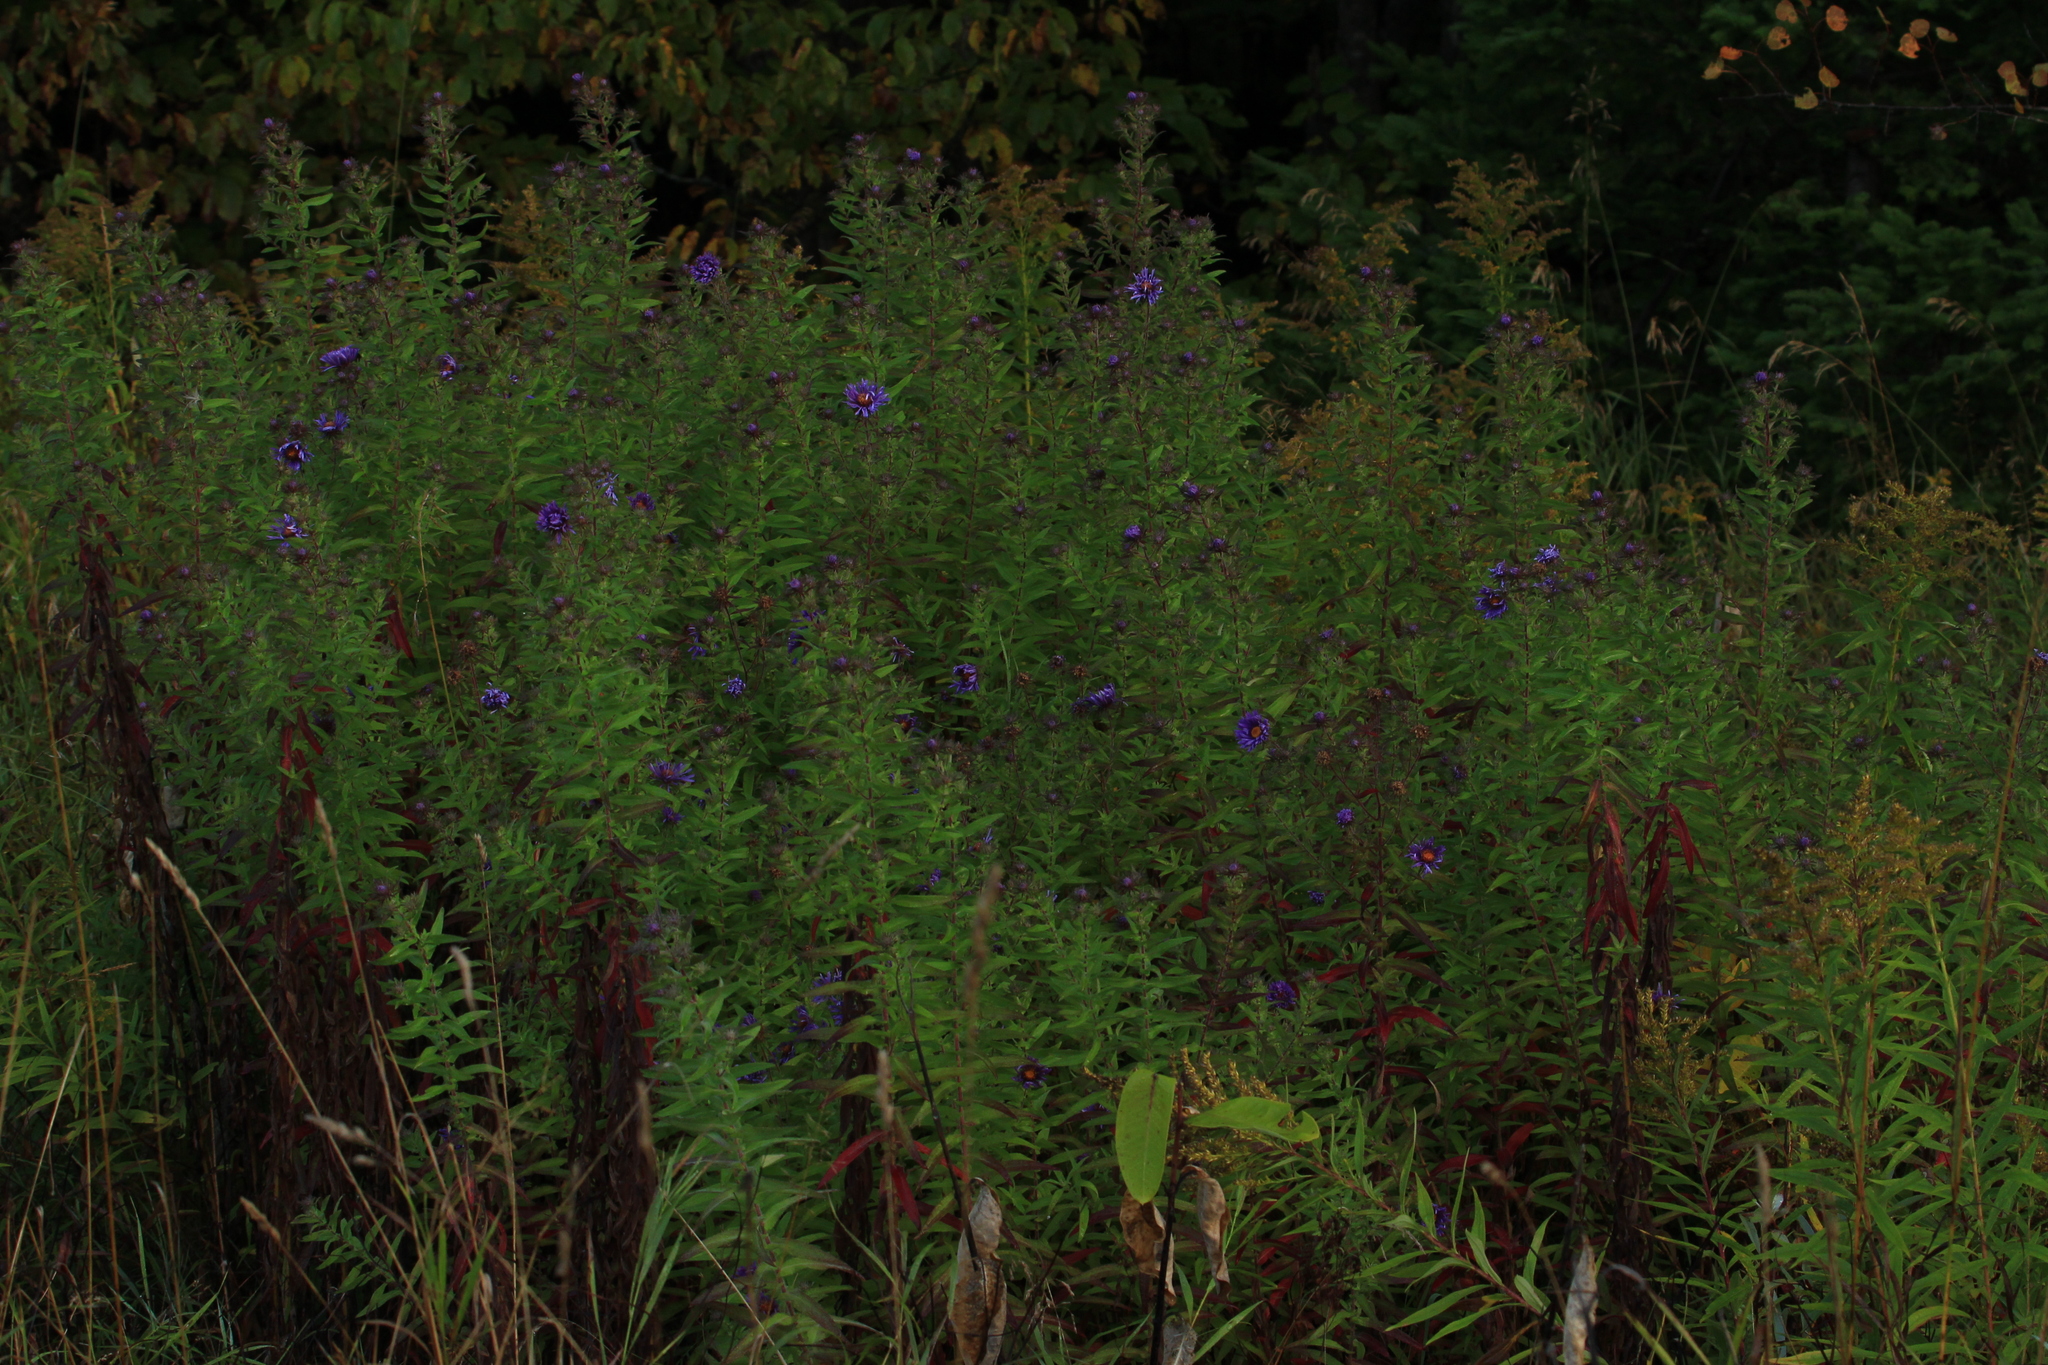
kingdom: Plantae
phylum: Tracheophyta
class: Magnoliopsida
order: Asterales
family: Asteraceae
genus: Symphyotrichum
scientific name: Symphyotrichum novae-angliae
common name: Michaelmas daisy
